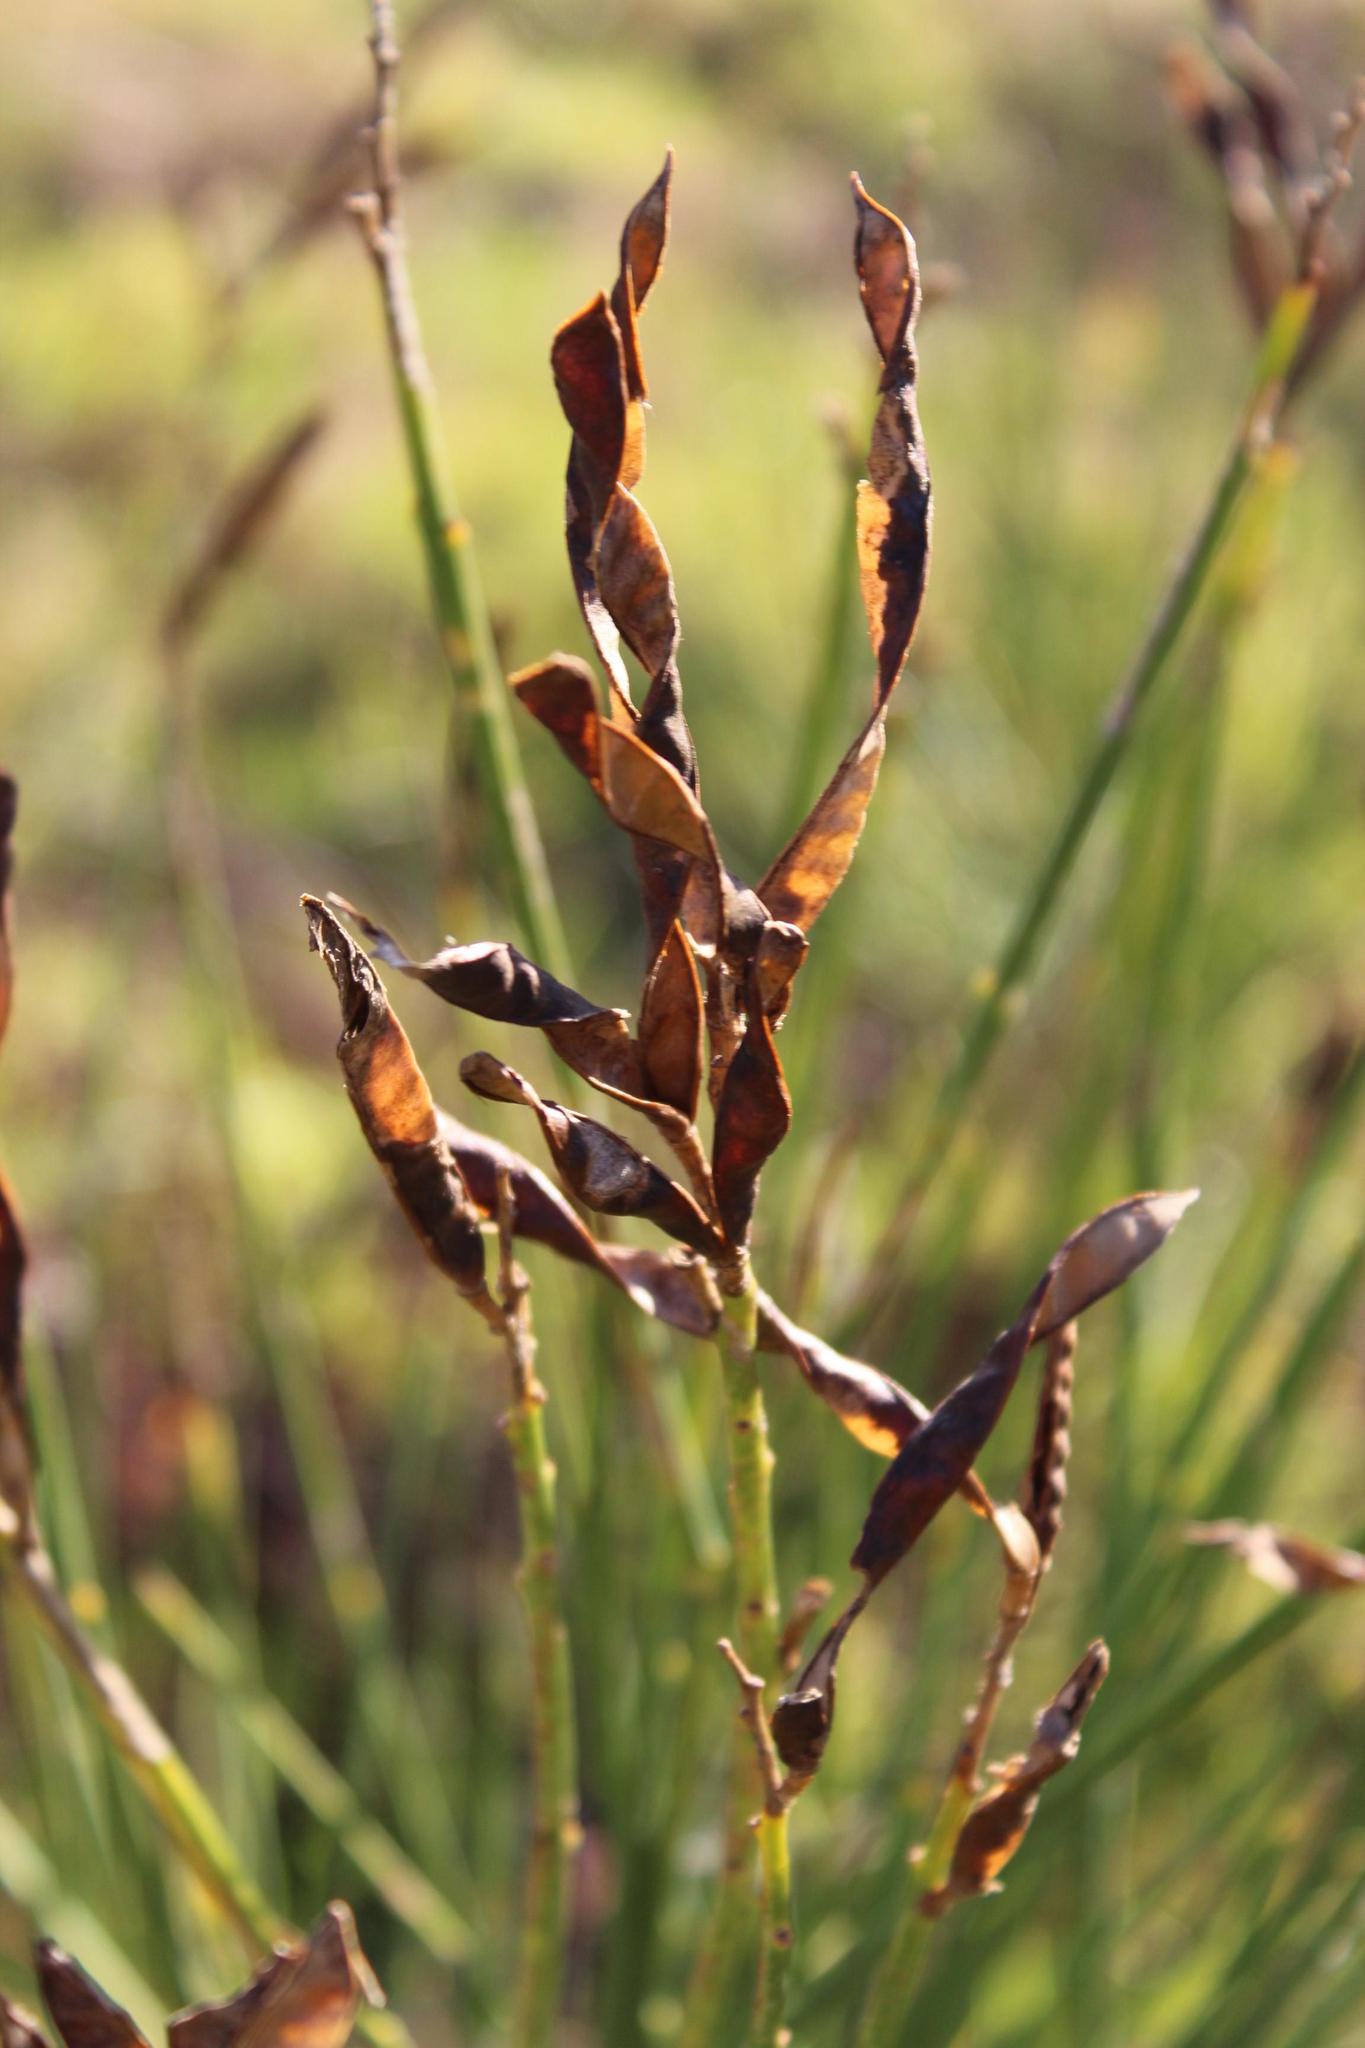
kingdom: Plantae
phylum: Tracheophyta
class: Magnoliopsida
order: Fabales
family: Fabaceae
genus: Spartium
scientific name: Spartium junceum
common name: Spanish broom
